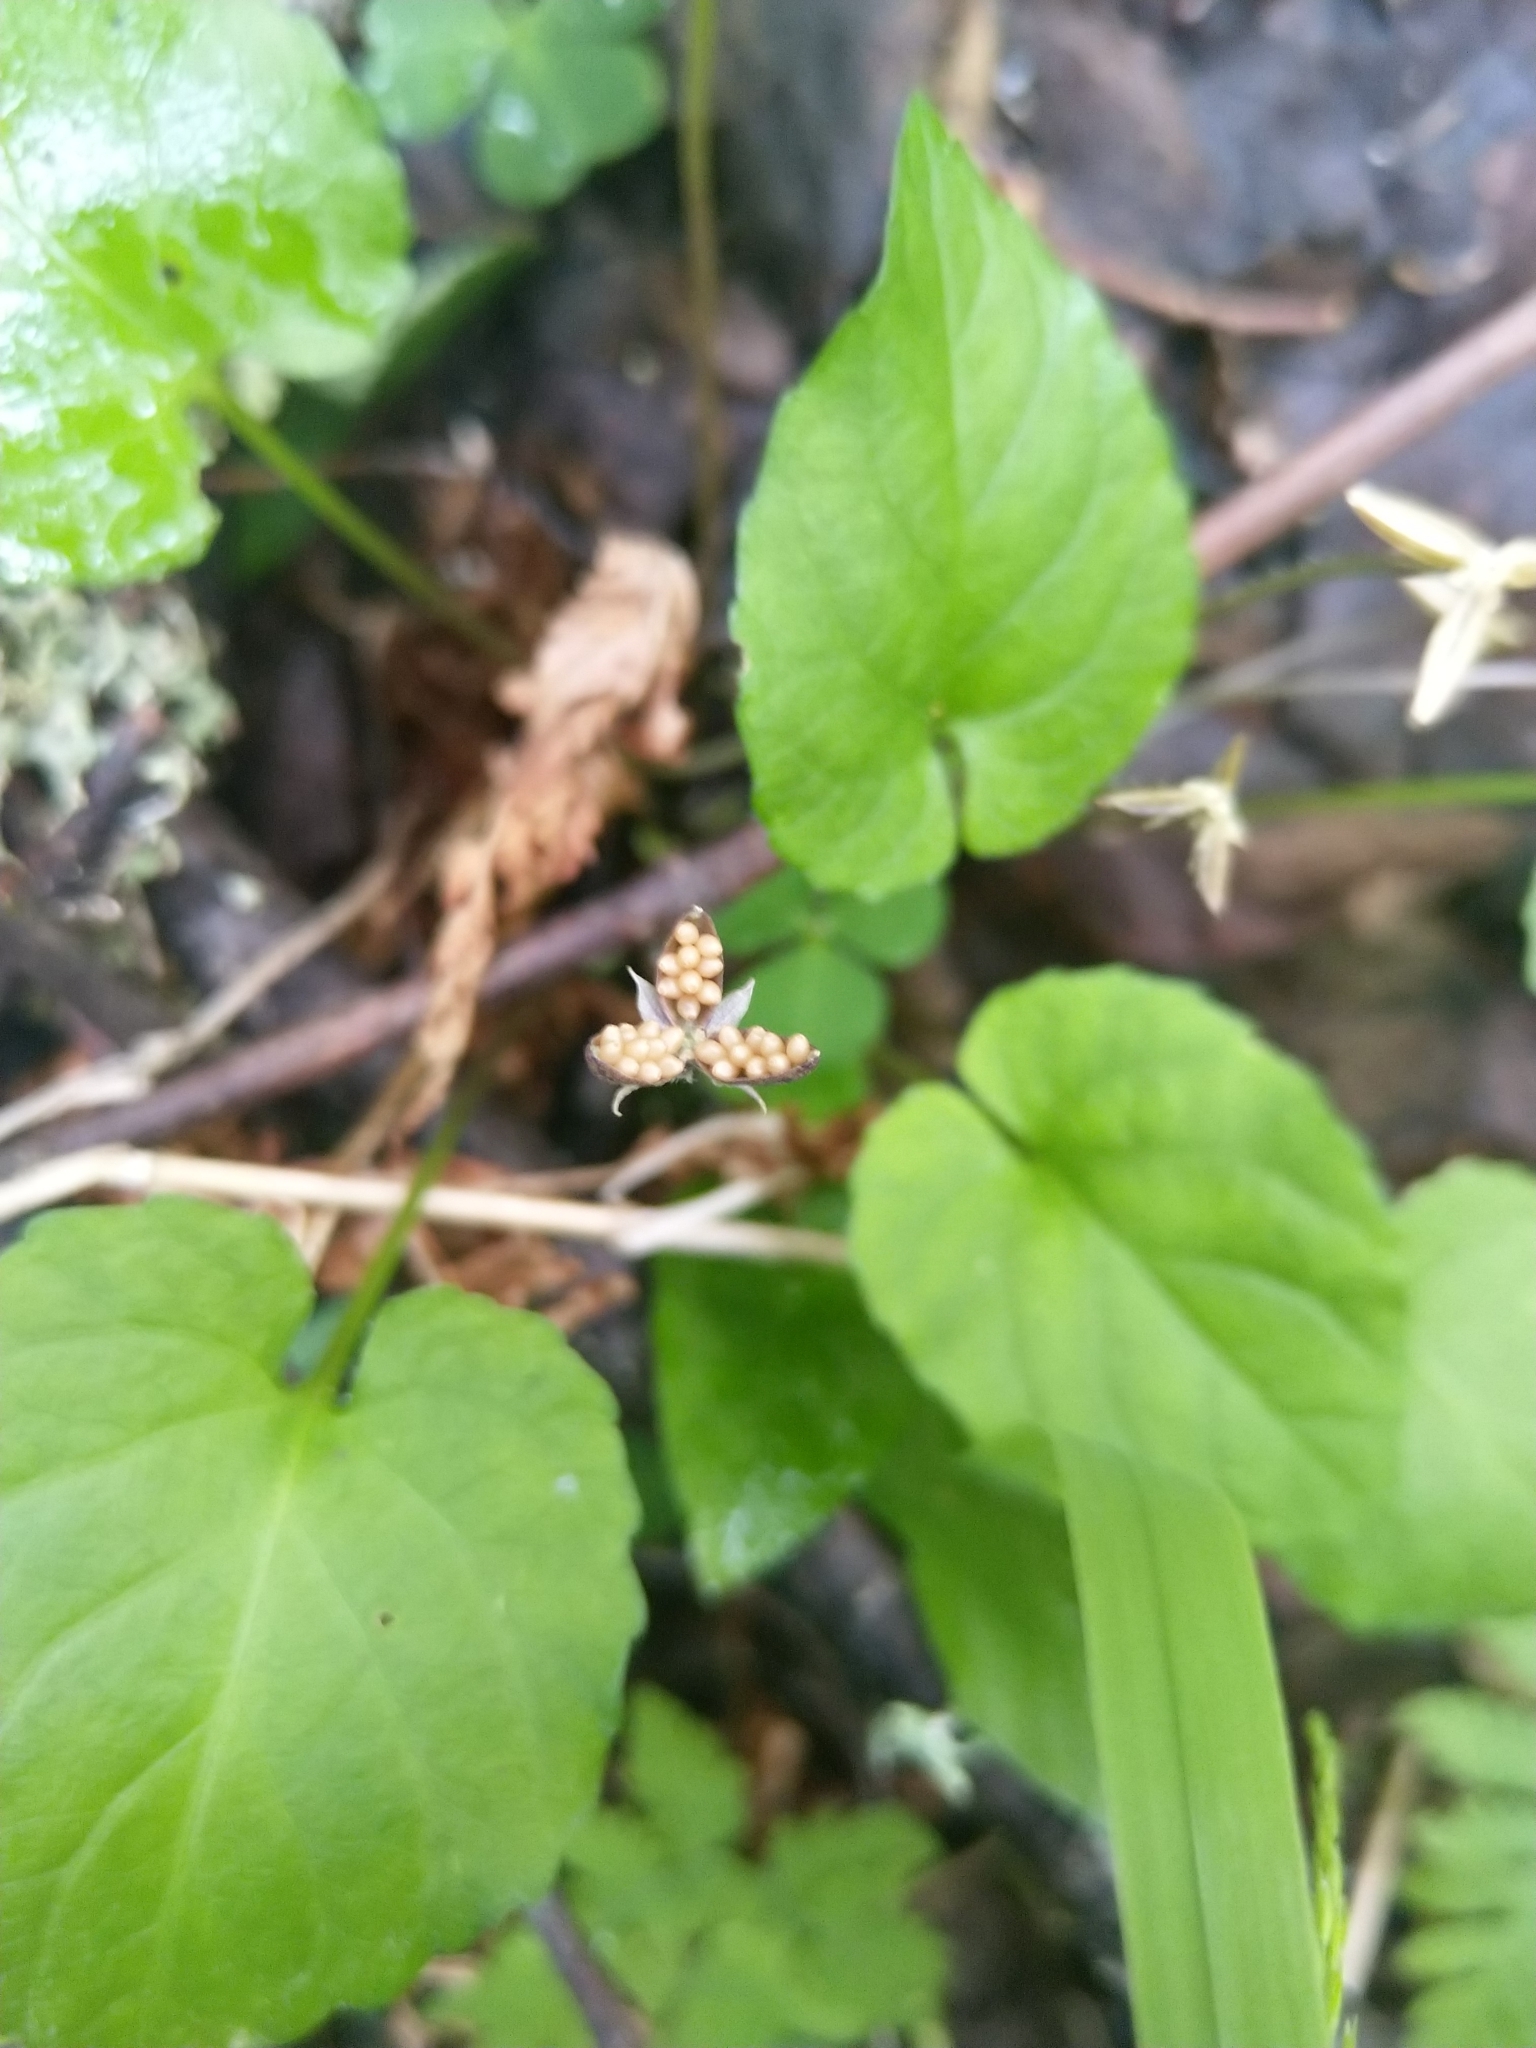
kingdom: Plantae
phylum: Tracheophyta
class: Magnoliopsida
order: Malpighiales
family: Violaceae
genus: Viola
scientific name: Viola selkirkii
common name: Selkirk's violet
